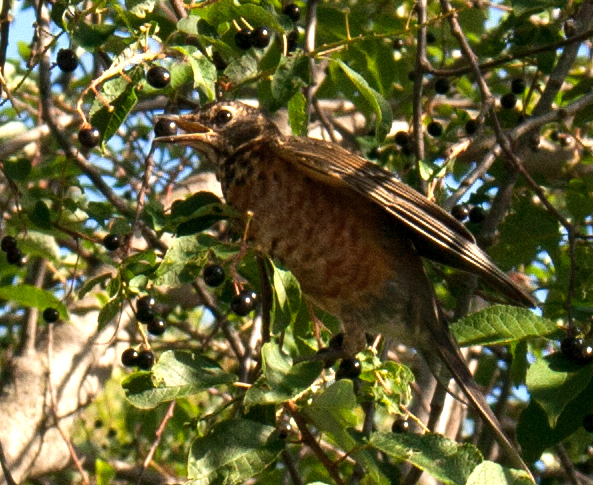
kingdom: Animalia
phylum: Chordata
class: Aves
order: Passeriformes
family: Turdidae
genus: Turdus
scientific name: Turdus migratorius
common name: American robin
